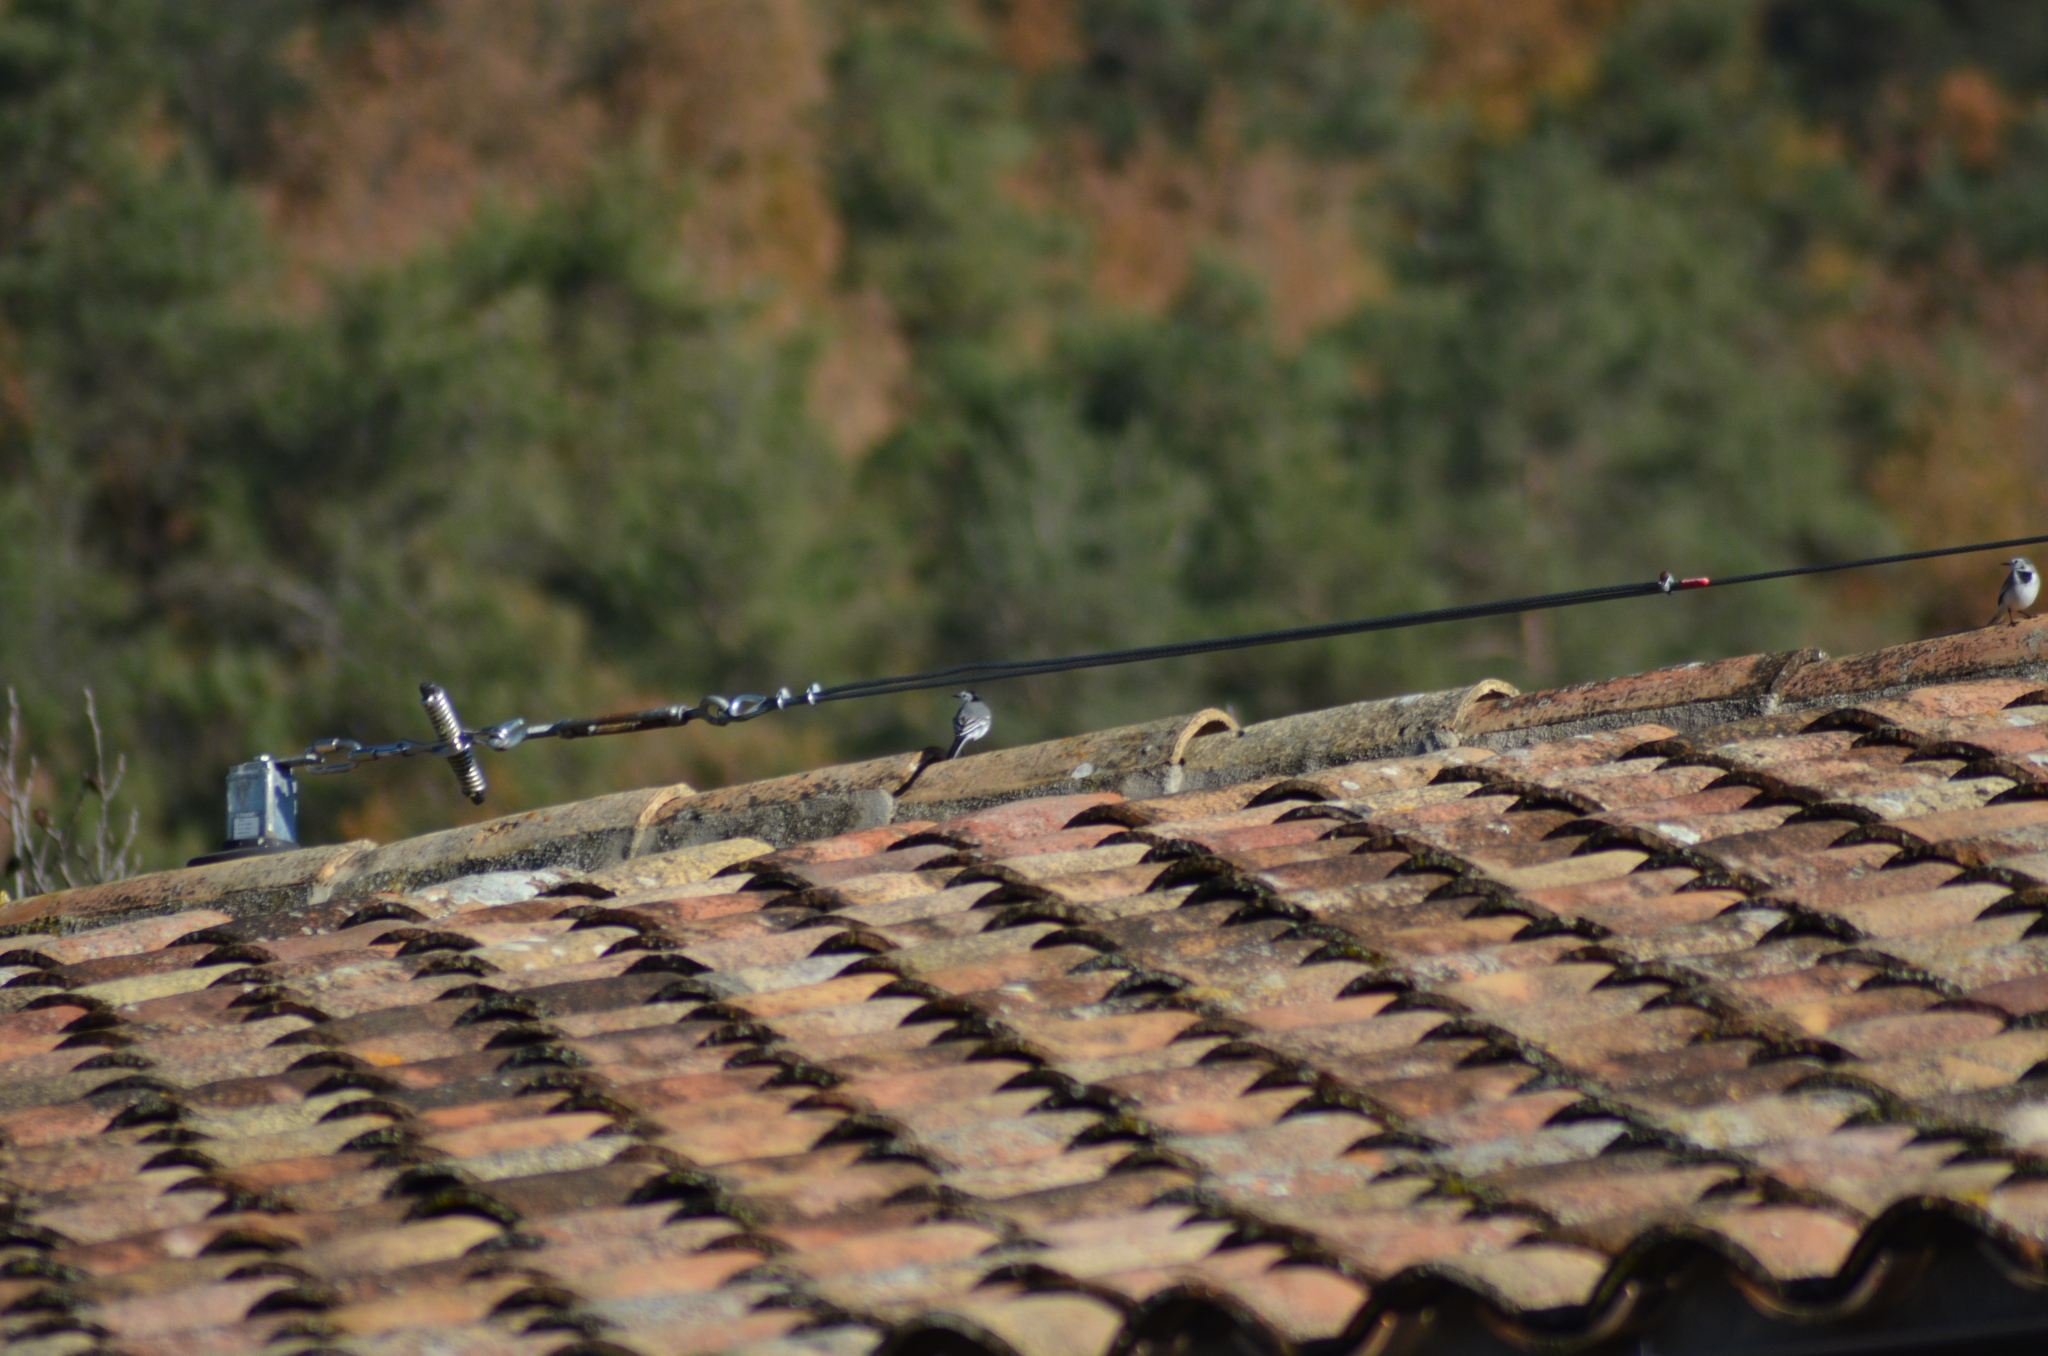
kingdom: Animalia
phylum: Chordata
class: Aves
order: Passeriformes
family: Motacillidae
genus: Motacilla
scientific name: Motacilla alba
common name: White wagtail
